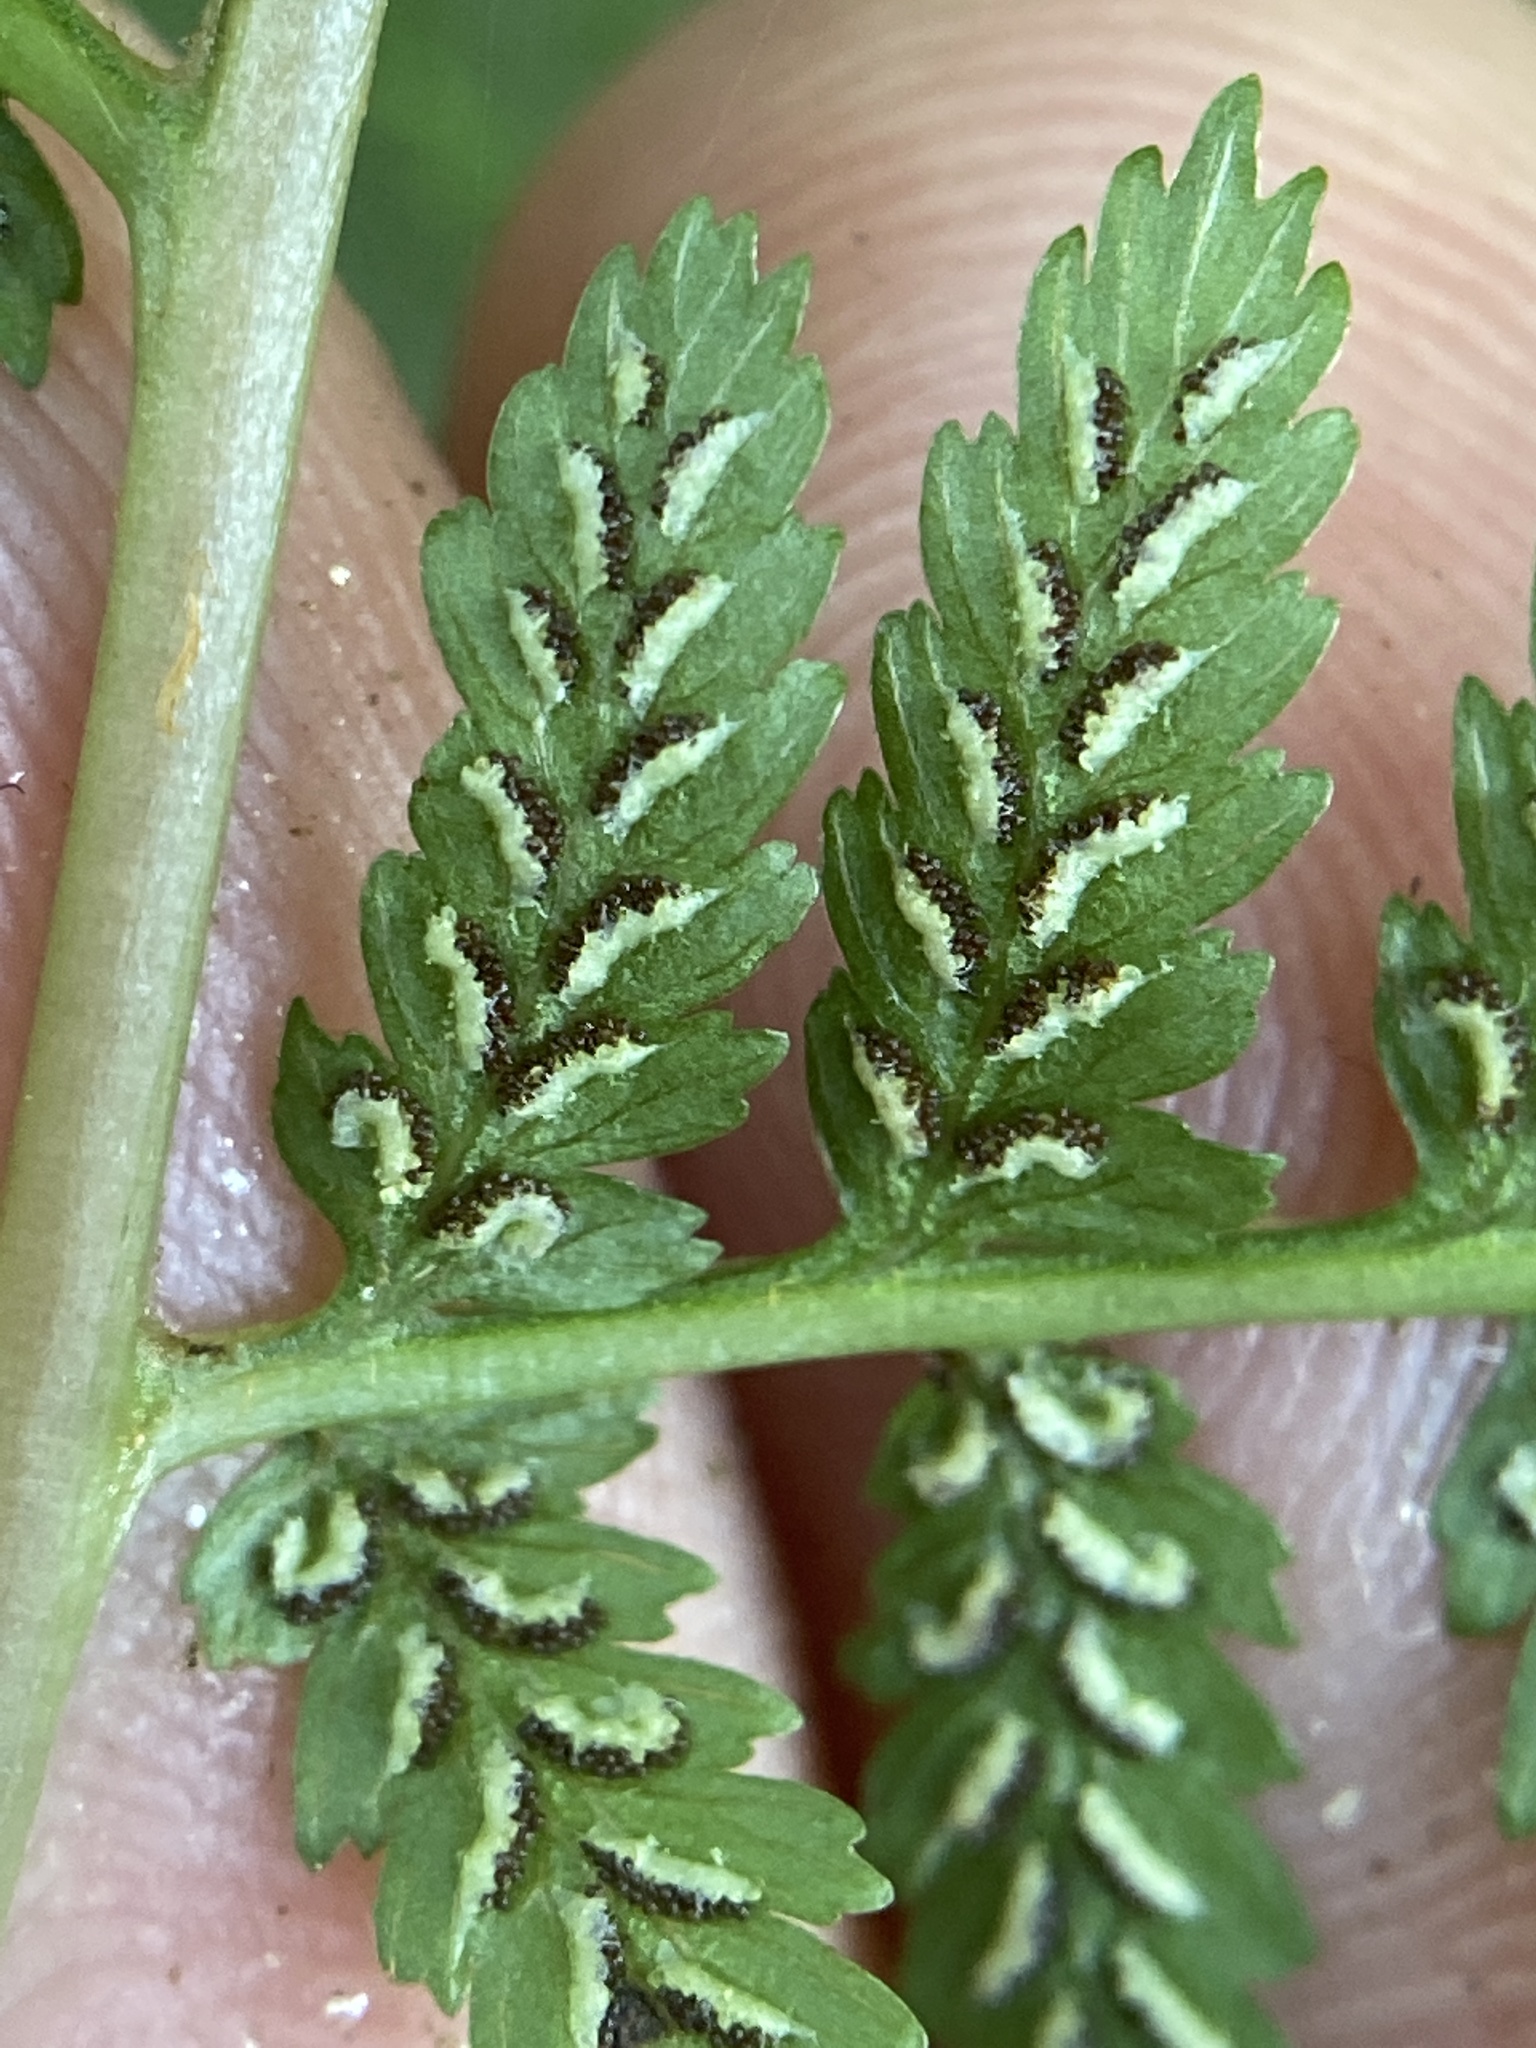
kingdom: Plantae
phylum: Tracheophyta
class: Polypodiopsida
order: Polypodiales
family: Athyriaceae
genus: Athyrium
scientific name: Athyrium asplenioides
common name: Southern lady fern
